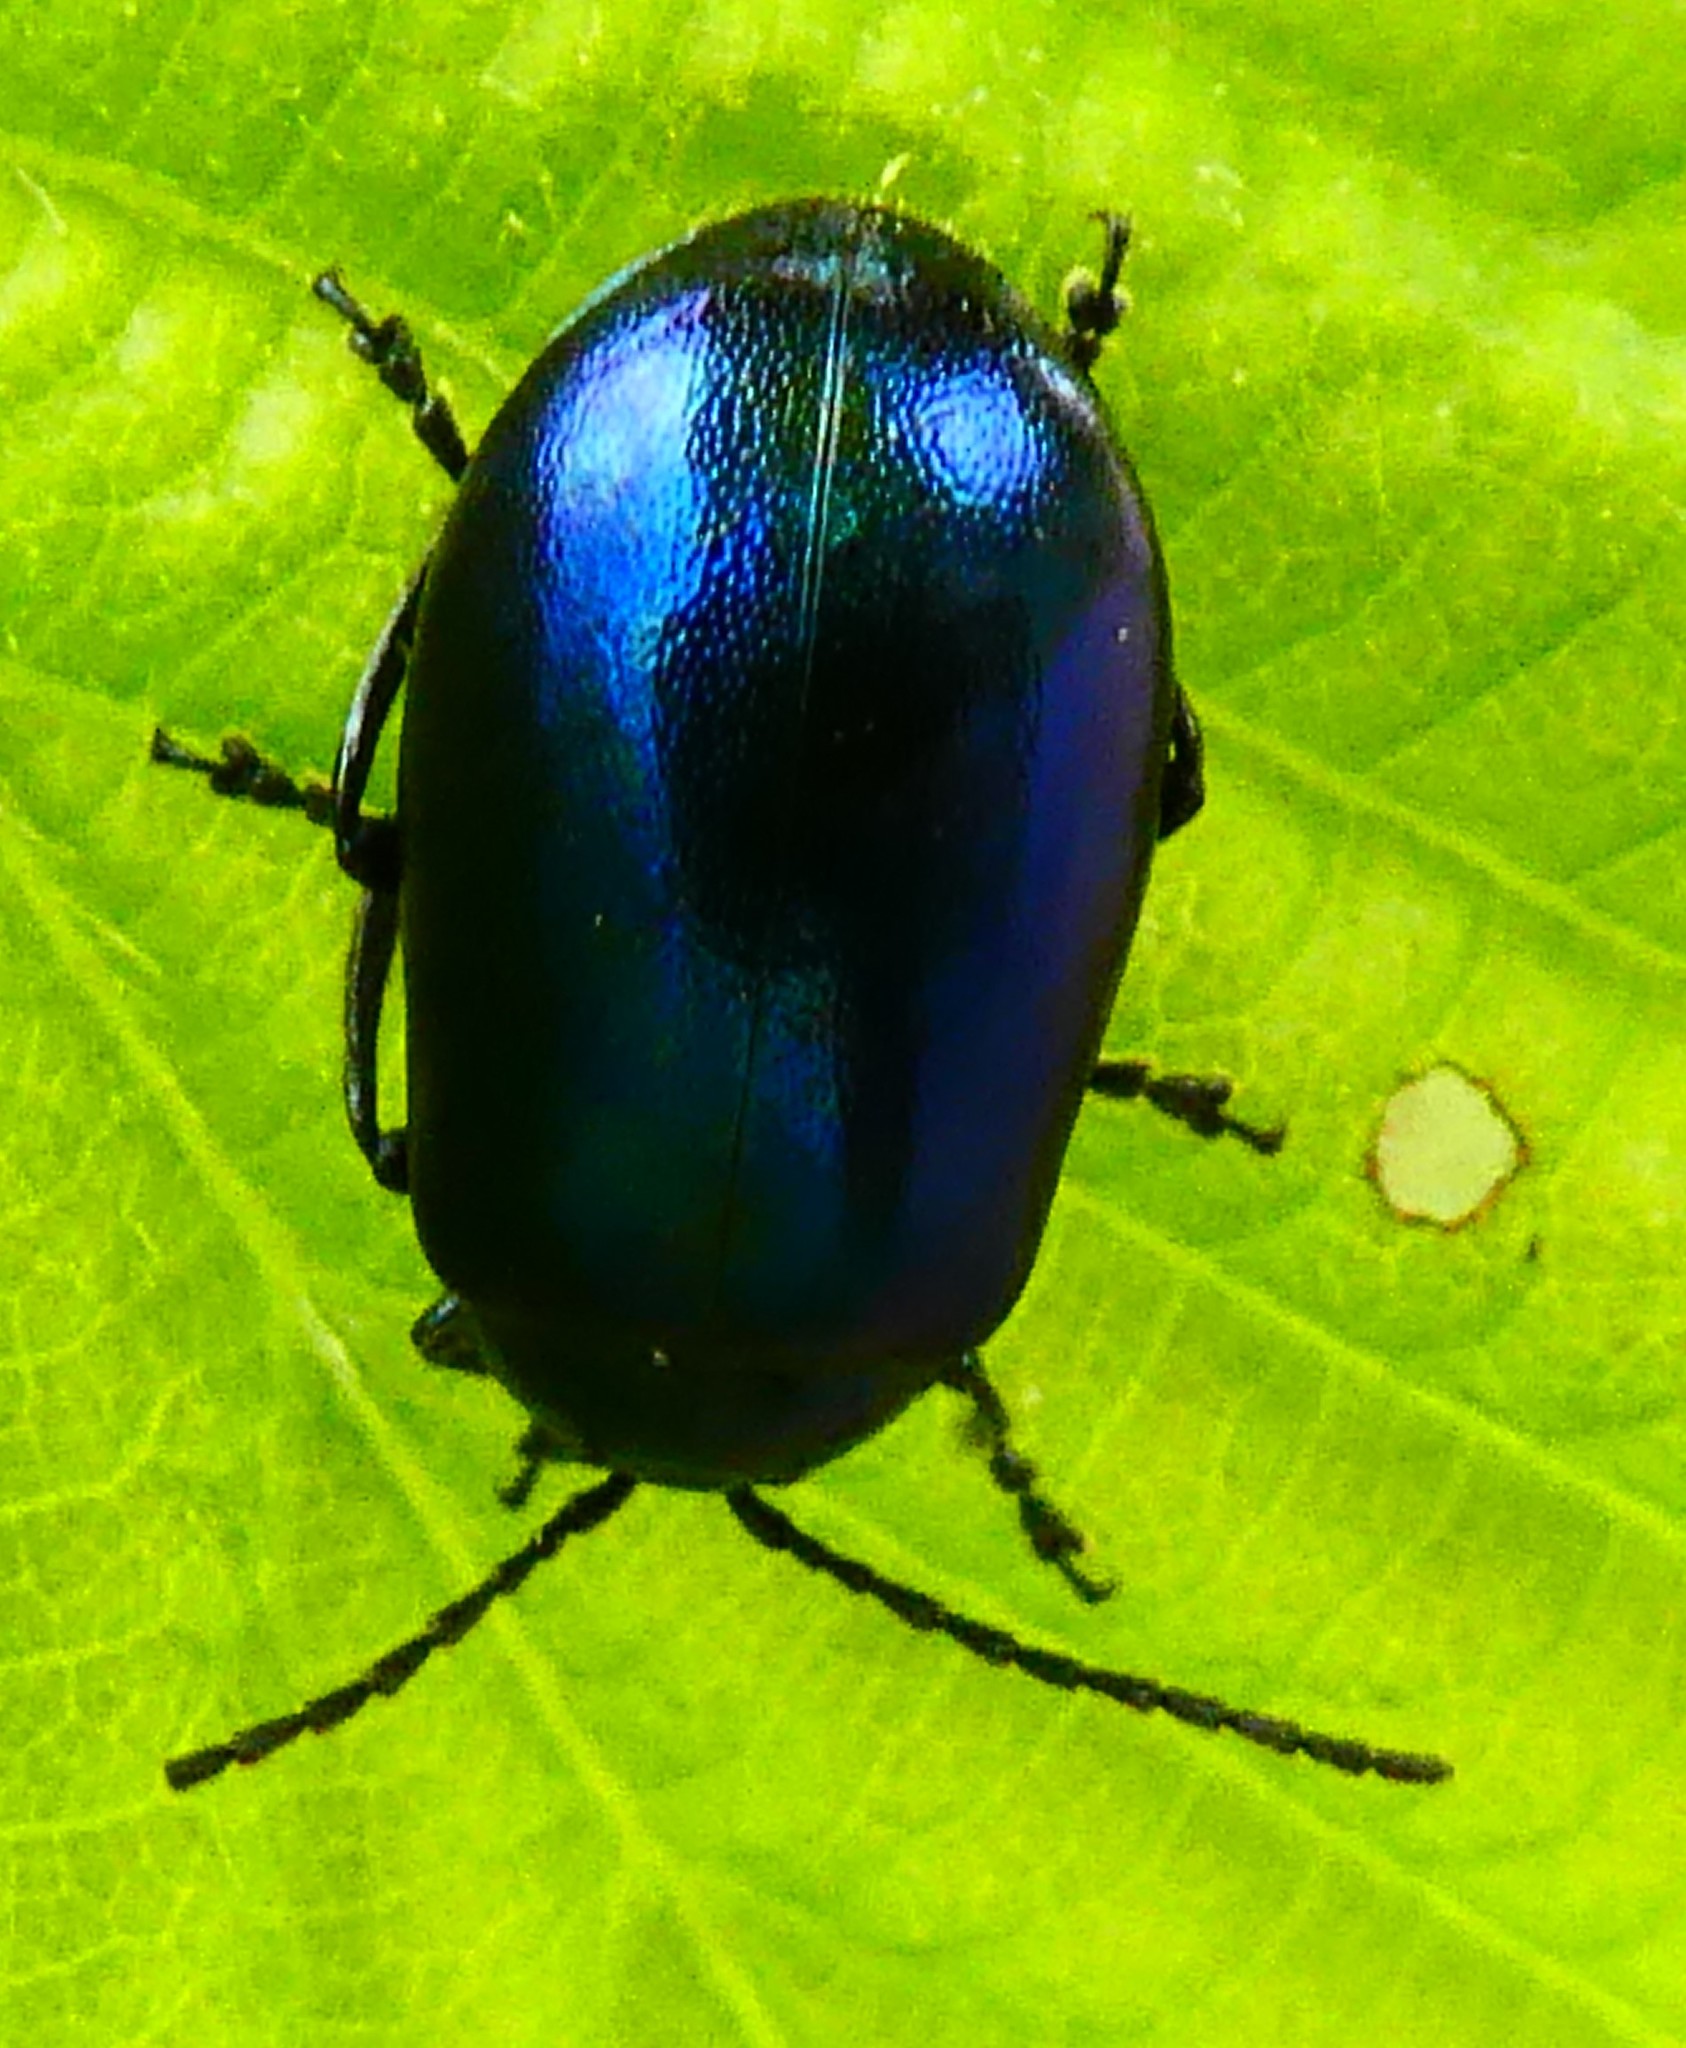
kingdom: Animalia
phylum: Arthropoda
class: Insecta
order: Coleoptera
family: Chrysomelidae
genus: Agelastica
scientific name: Agelastica alni
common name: Alder leaf beetle
